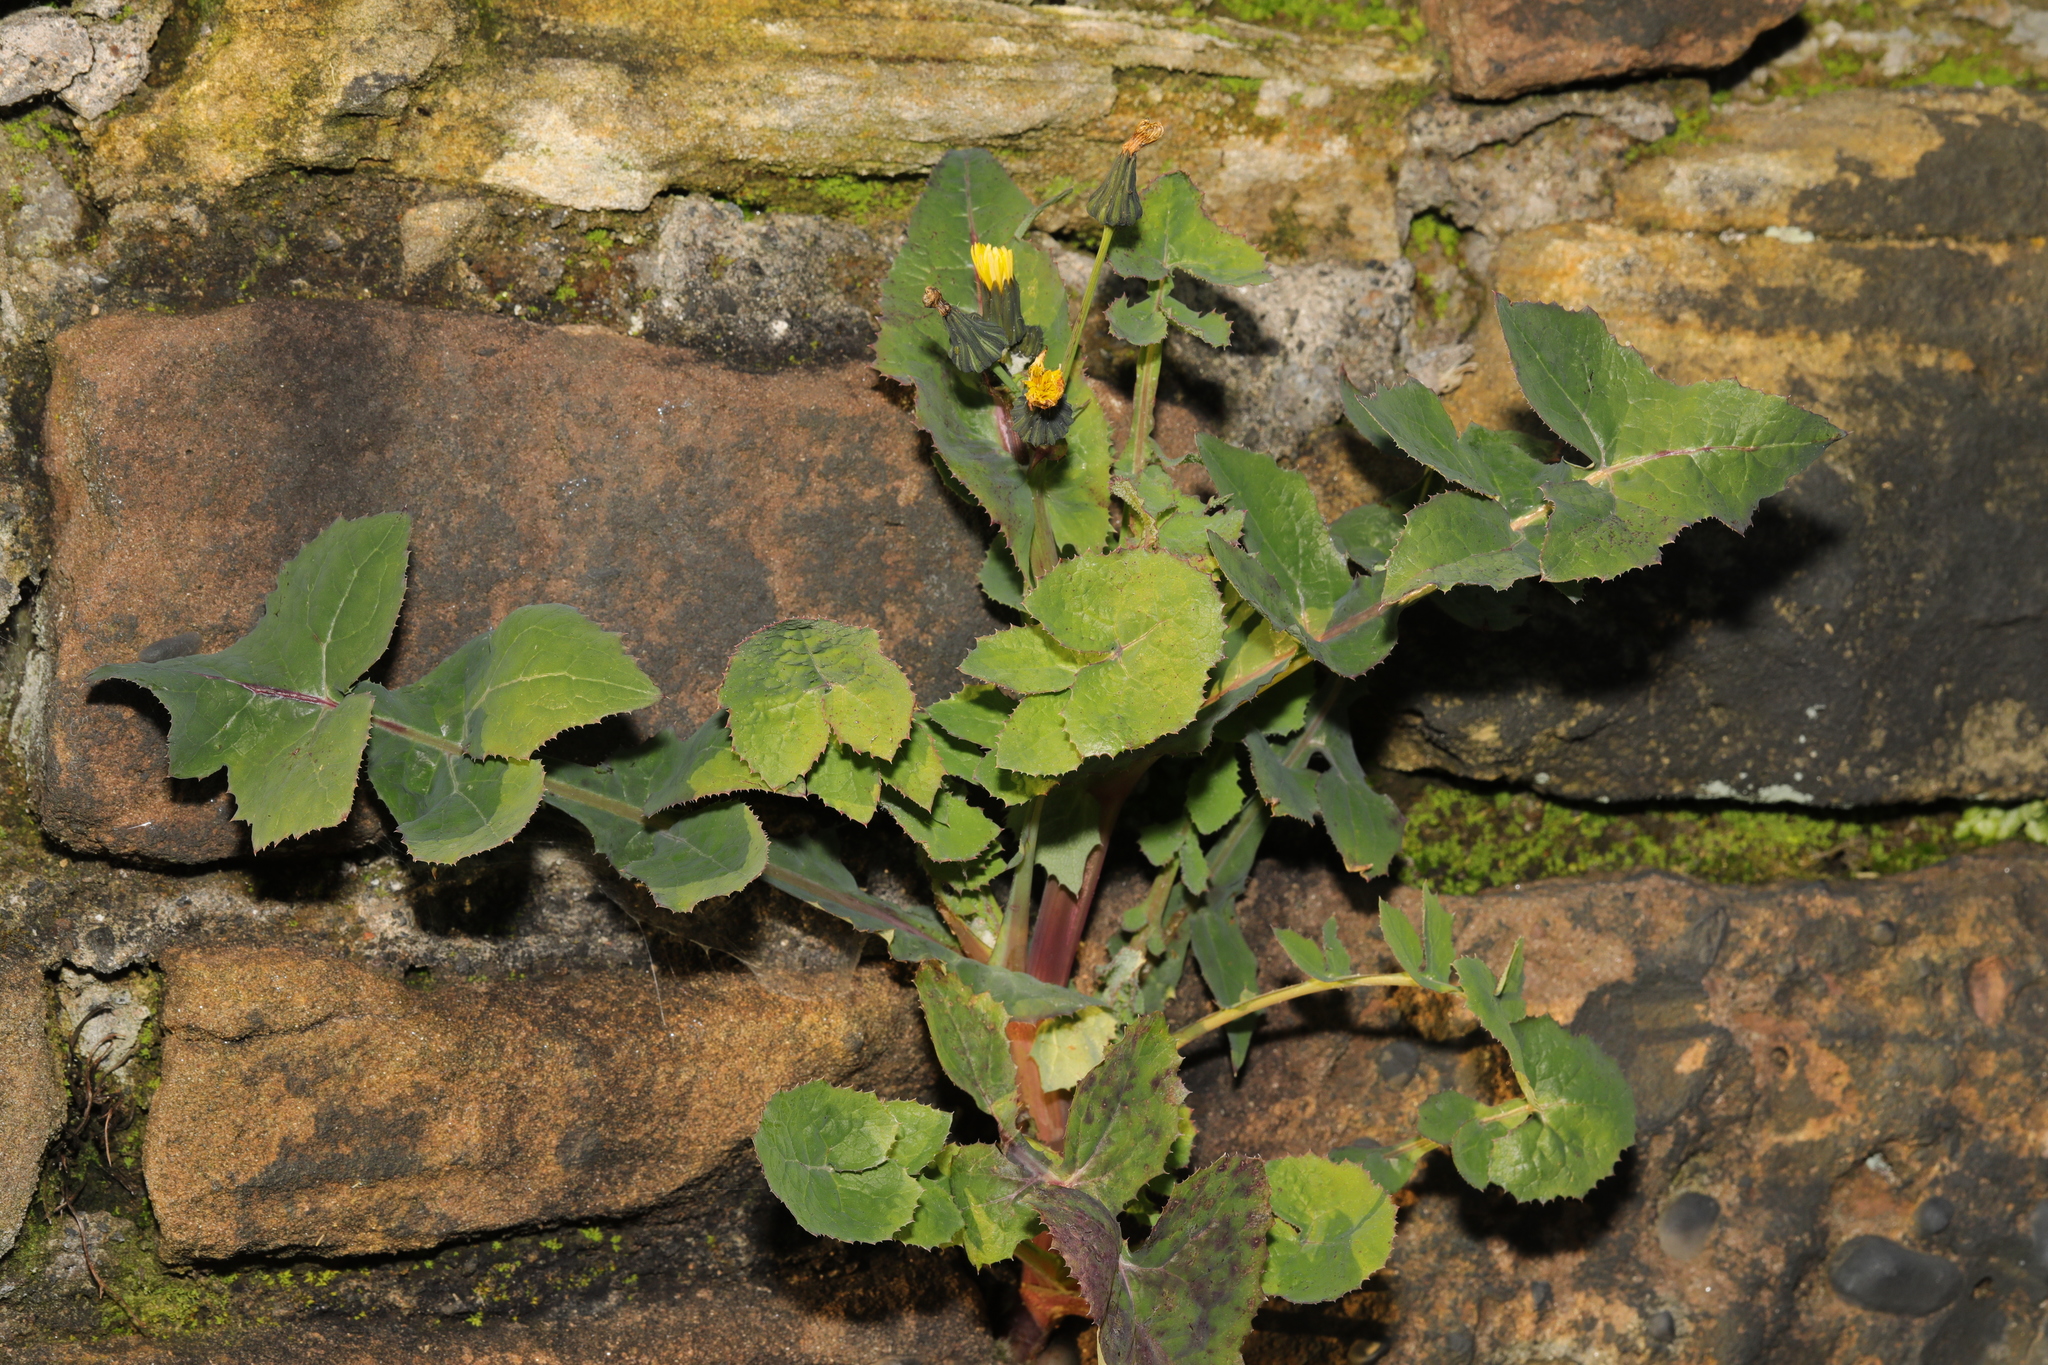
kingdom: Plantae
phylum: Tracheophyta
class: Magnoliopsida
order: Asterales
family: Asteraceae
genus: Sonchus
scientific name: Sonchus oleraceus
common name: Common sowthistle
